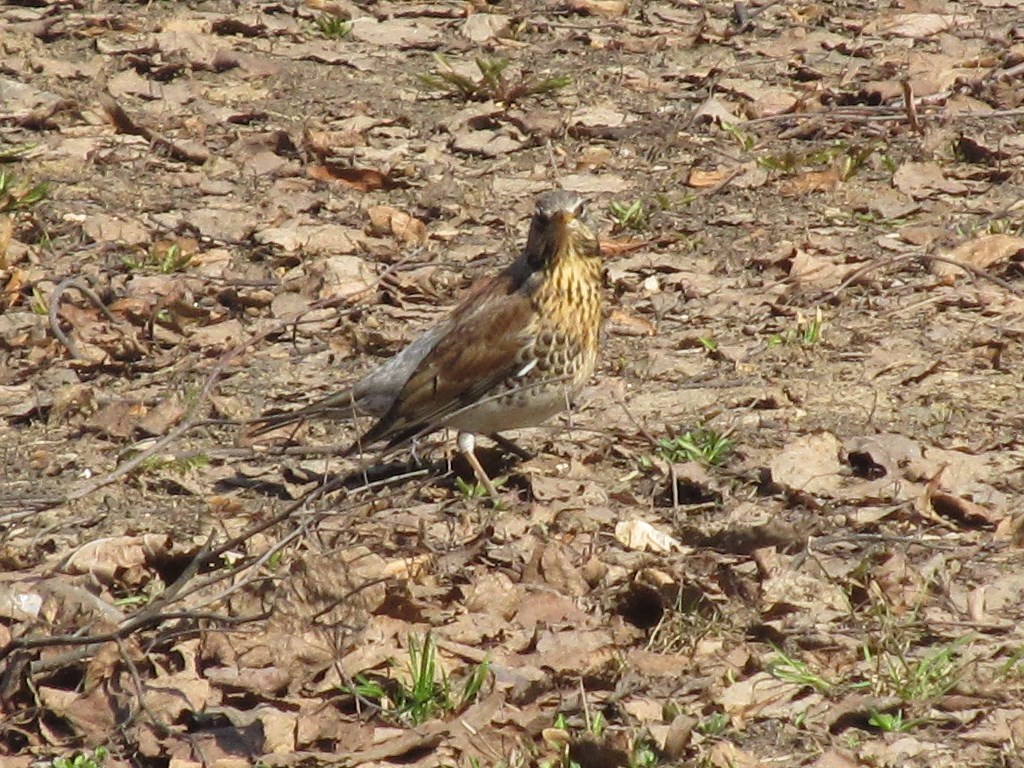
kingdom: Animalia
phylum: Chordata
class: Aves
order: Passeriformes
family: Turdidae
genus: Turdus
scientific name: Turdus pilaris
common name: Fieldfare
